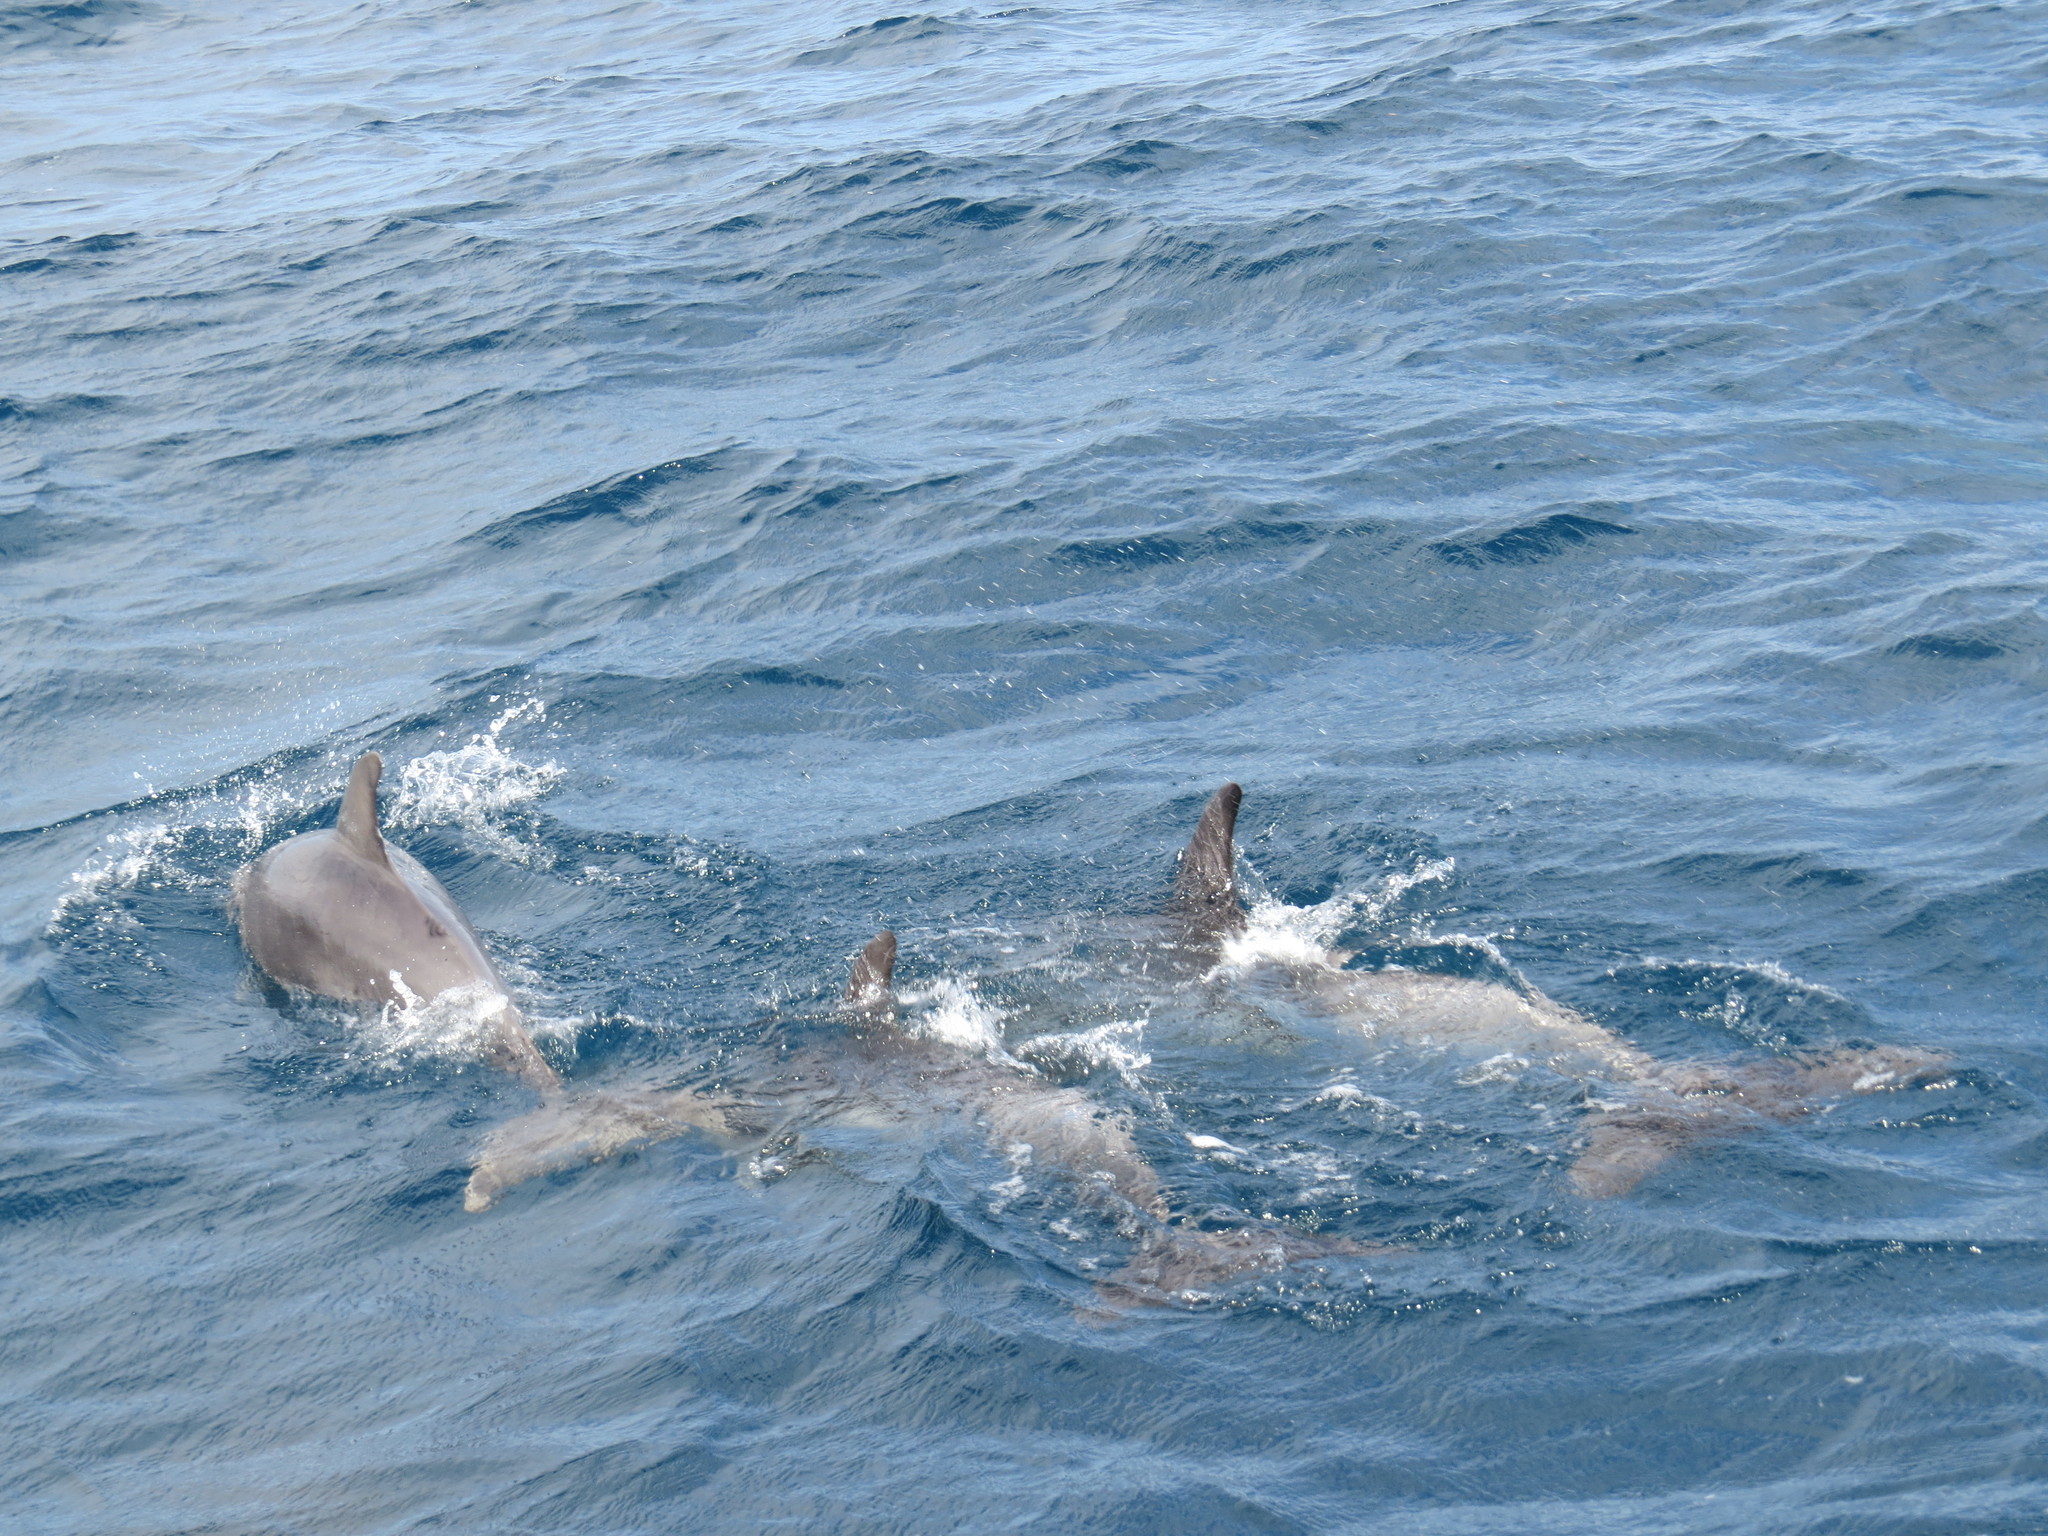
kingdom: Animalia
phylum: Chordata
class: Mammalia
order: Cetacea
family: Delphinidae
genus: Tursiops
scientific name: Tursiops truncatus
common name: Bottlenose dolphin
